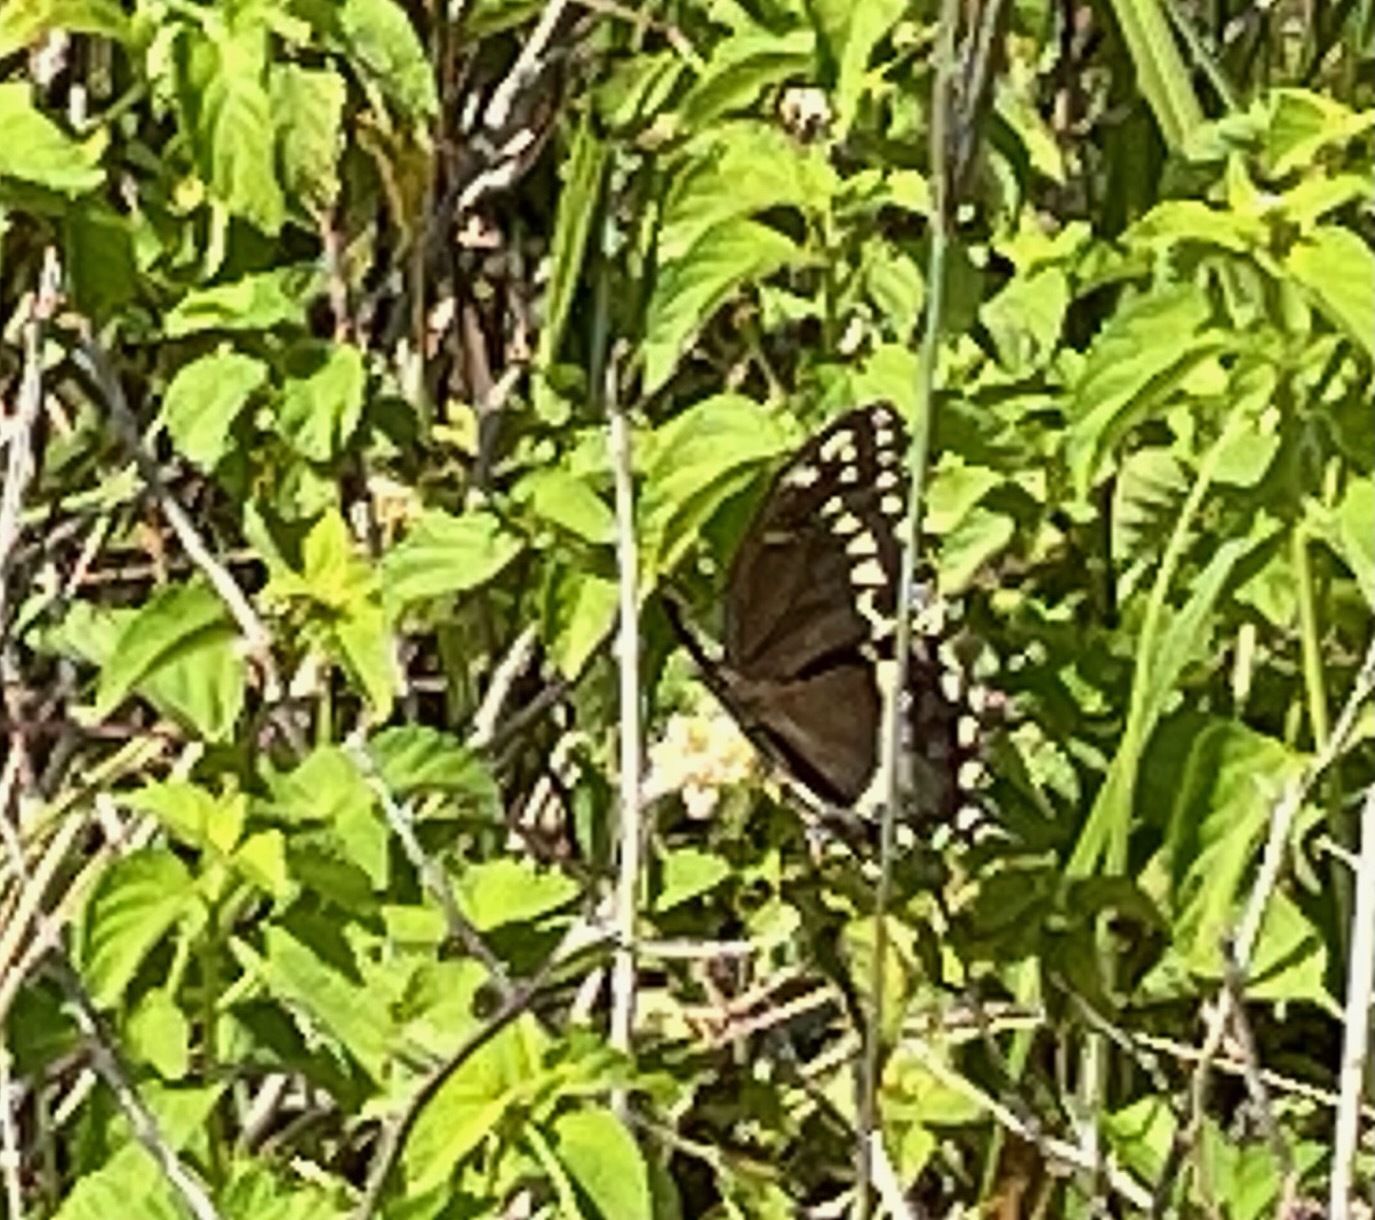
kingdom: Animalia
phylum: Arthropoda
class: Insecta
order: Lepidoptera
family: Papilionidae
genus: Papilio
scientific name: Papilio palamedes
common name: Palamedes swallowtail
